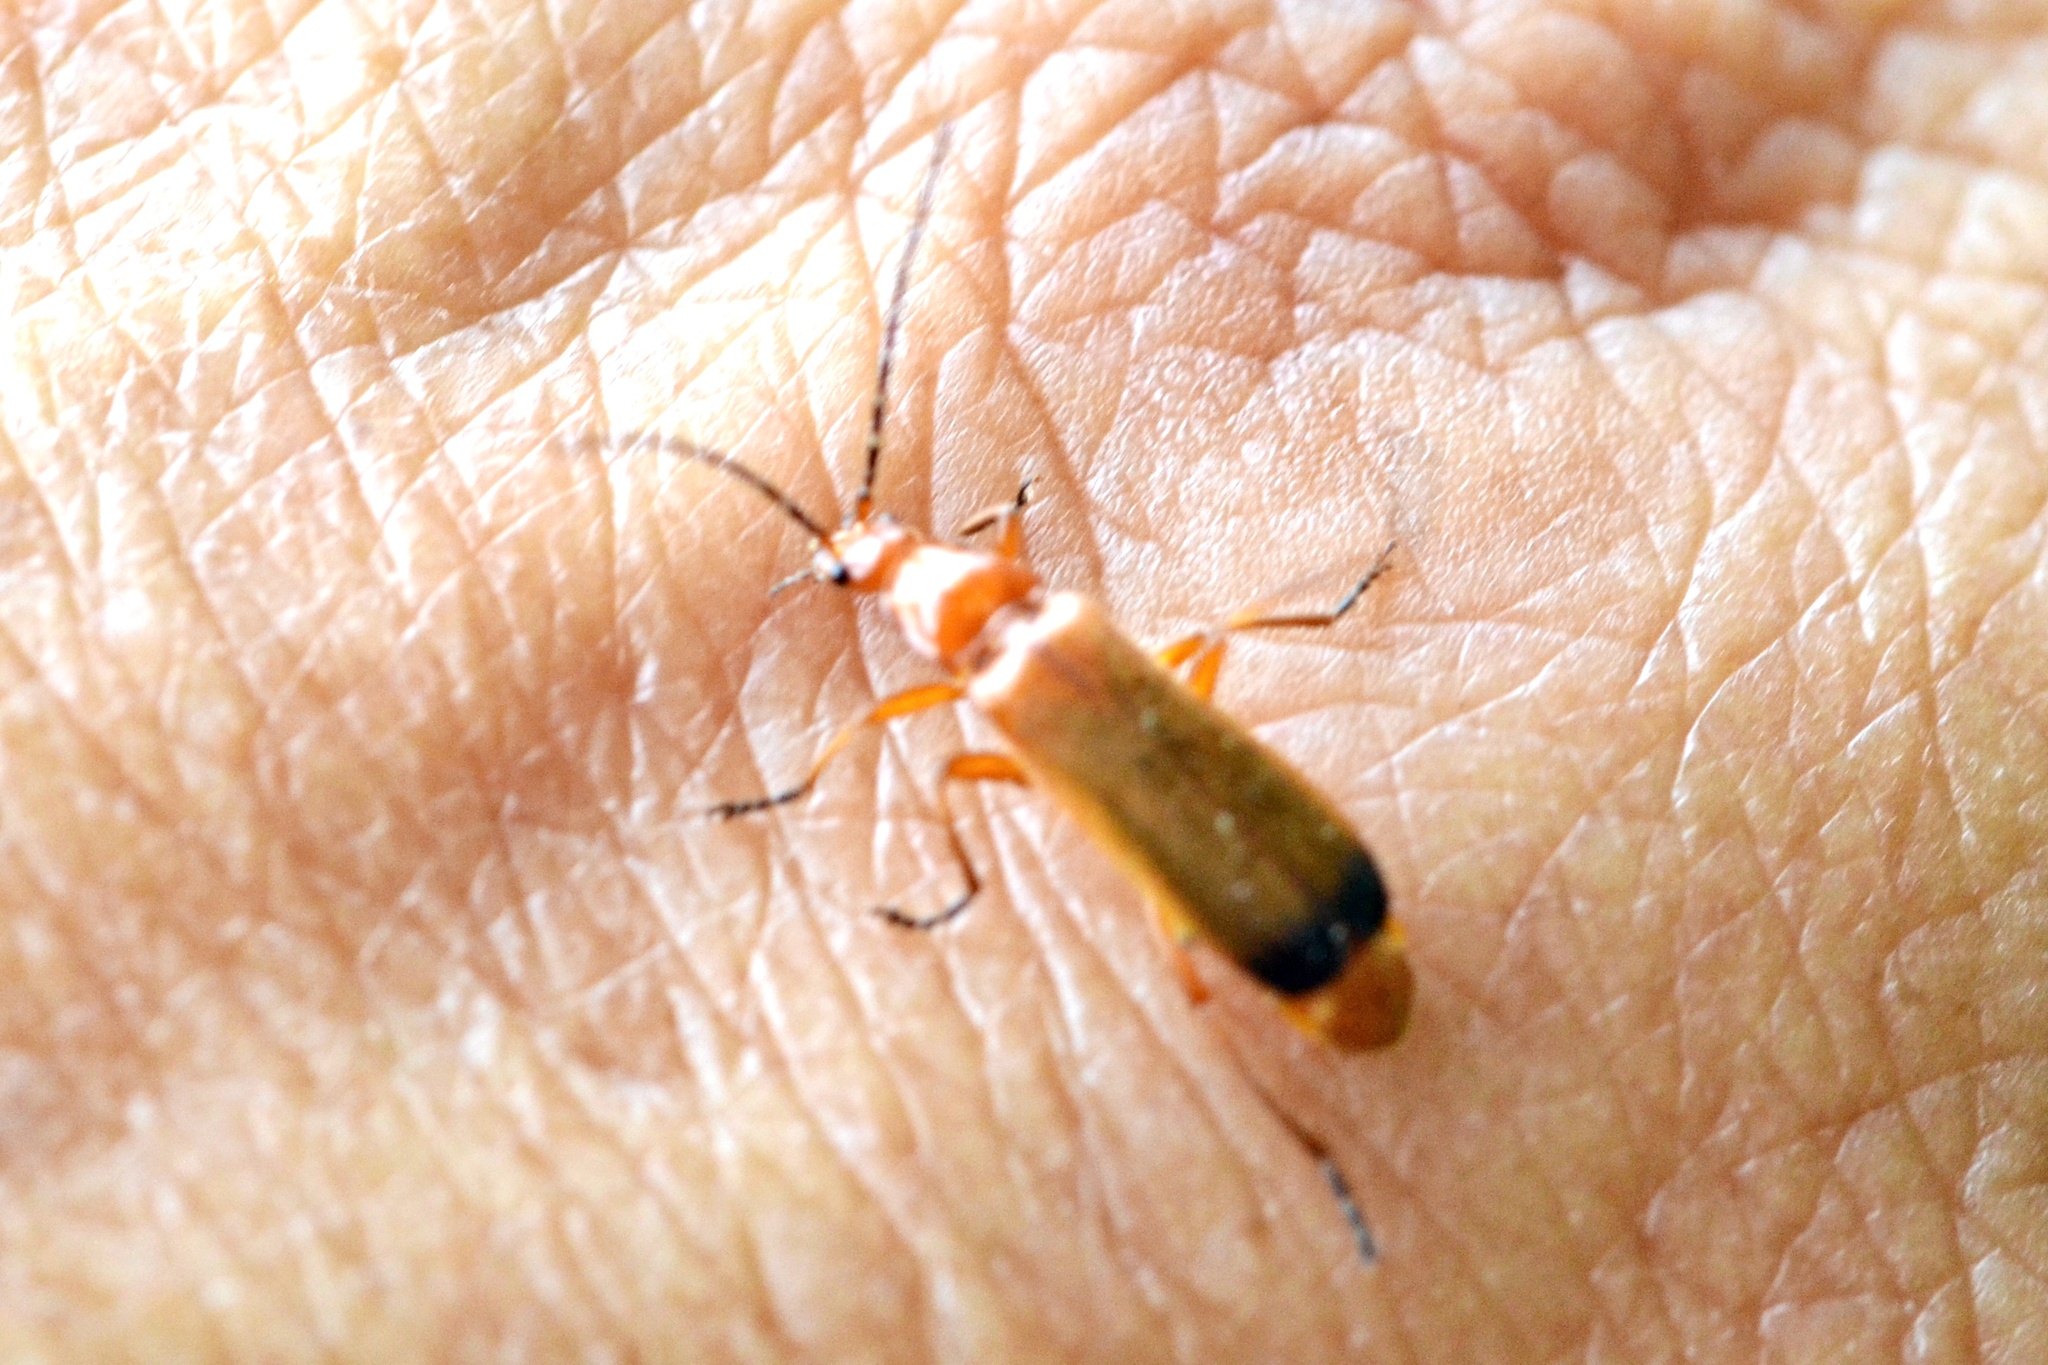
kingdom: Animalia
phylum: Arthropoda
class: Insecta
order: Coleoptera
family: Cantharidae
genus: Rhagonycha
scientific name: Rhagonycha fulva
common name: Common red soldier beetle
